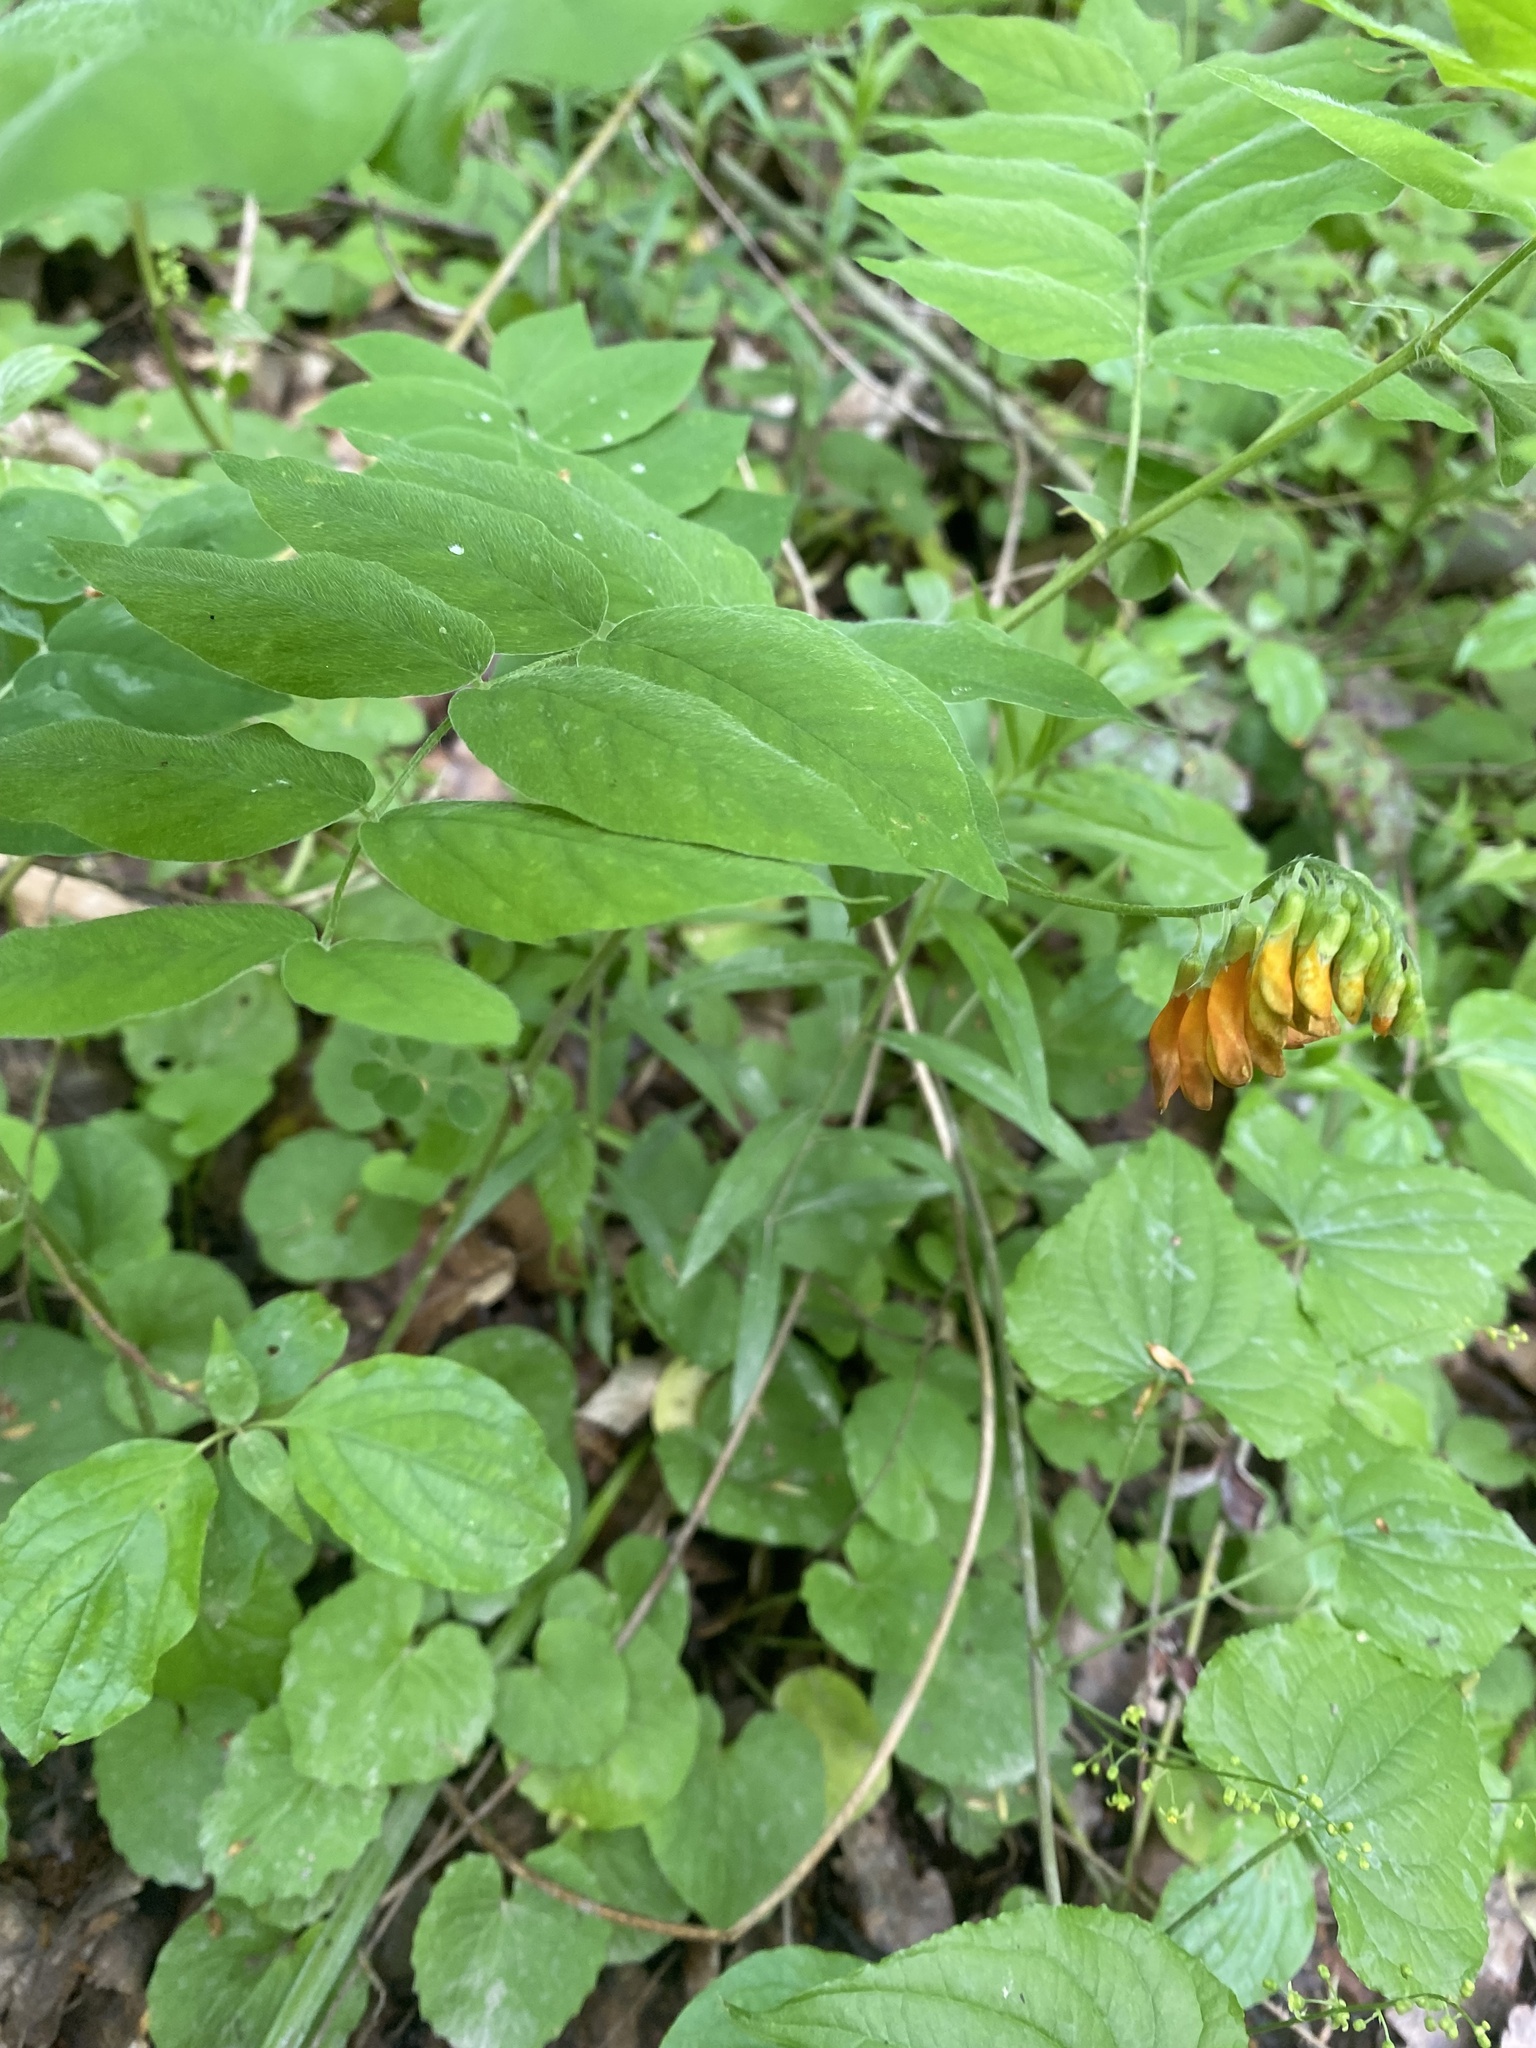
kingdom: Plantae
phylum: Tracheophyta
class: Magnoliopsida
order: Fabales
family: Fabaceae
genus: Vicia
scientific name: Vicia crocea
